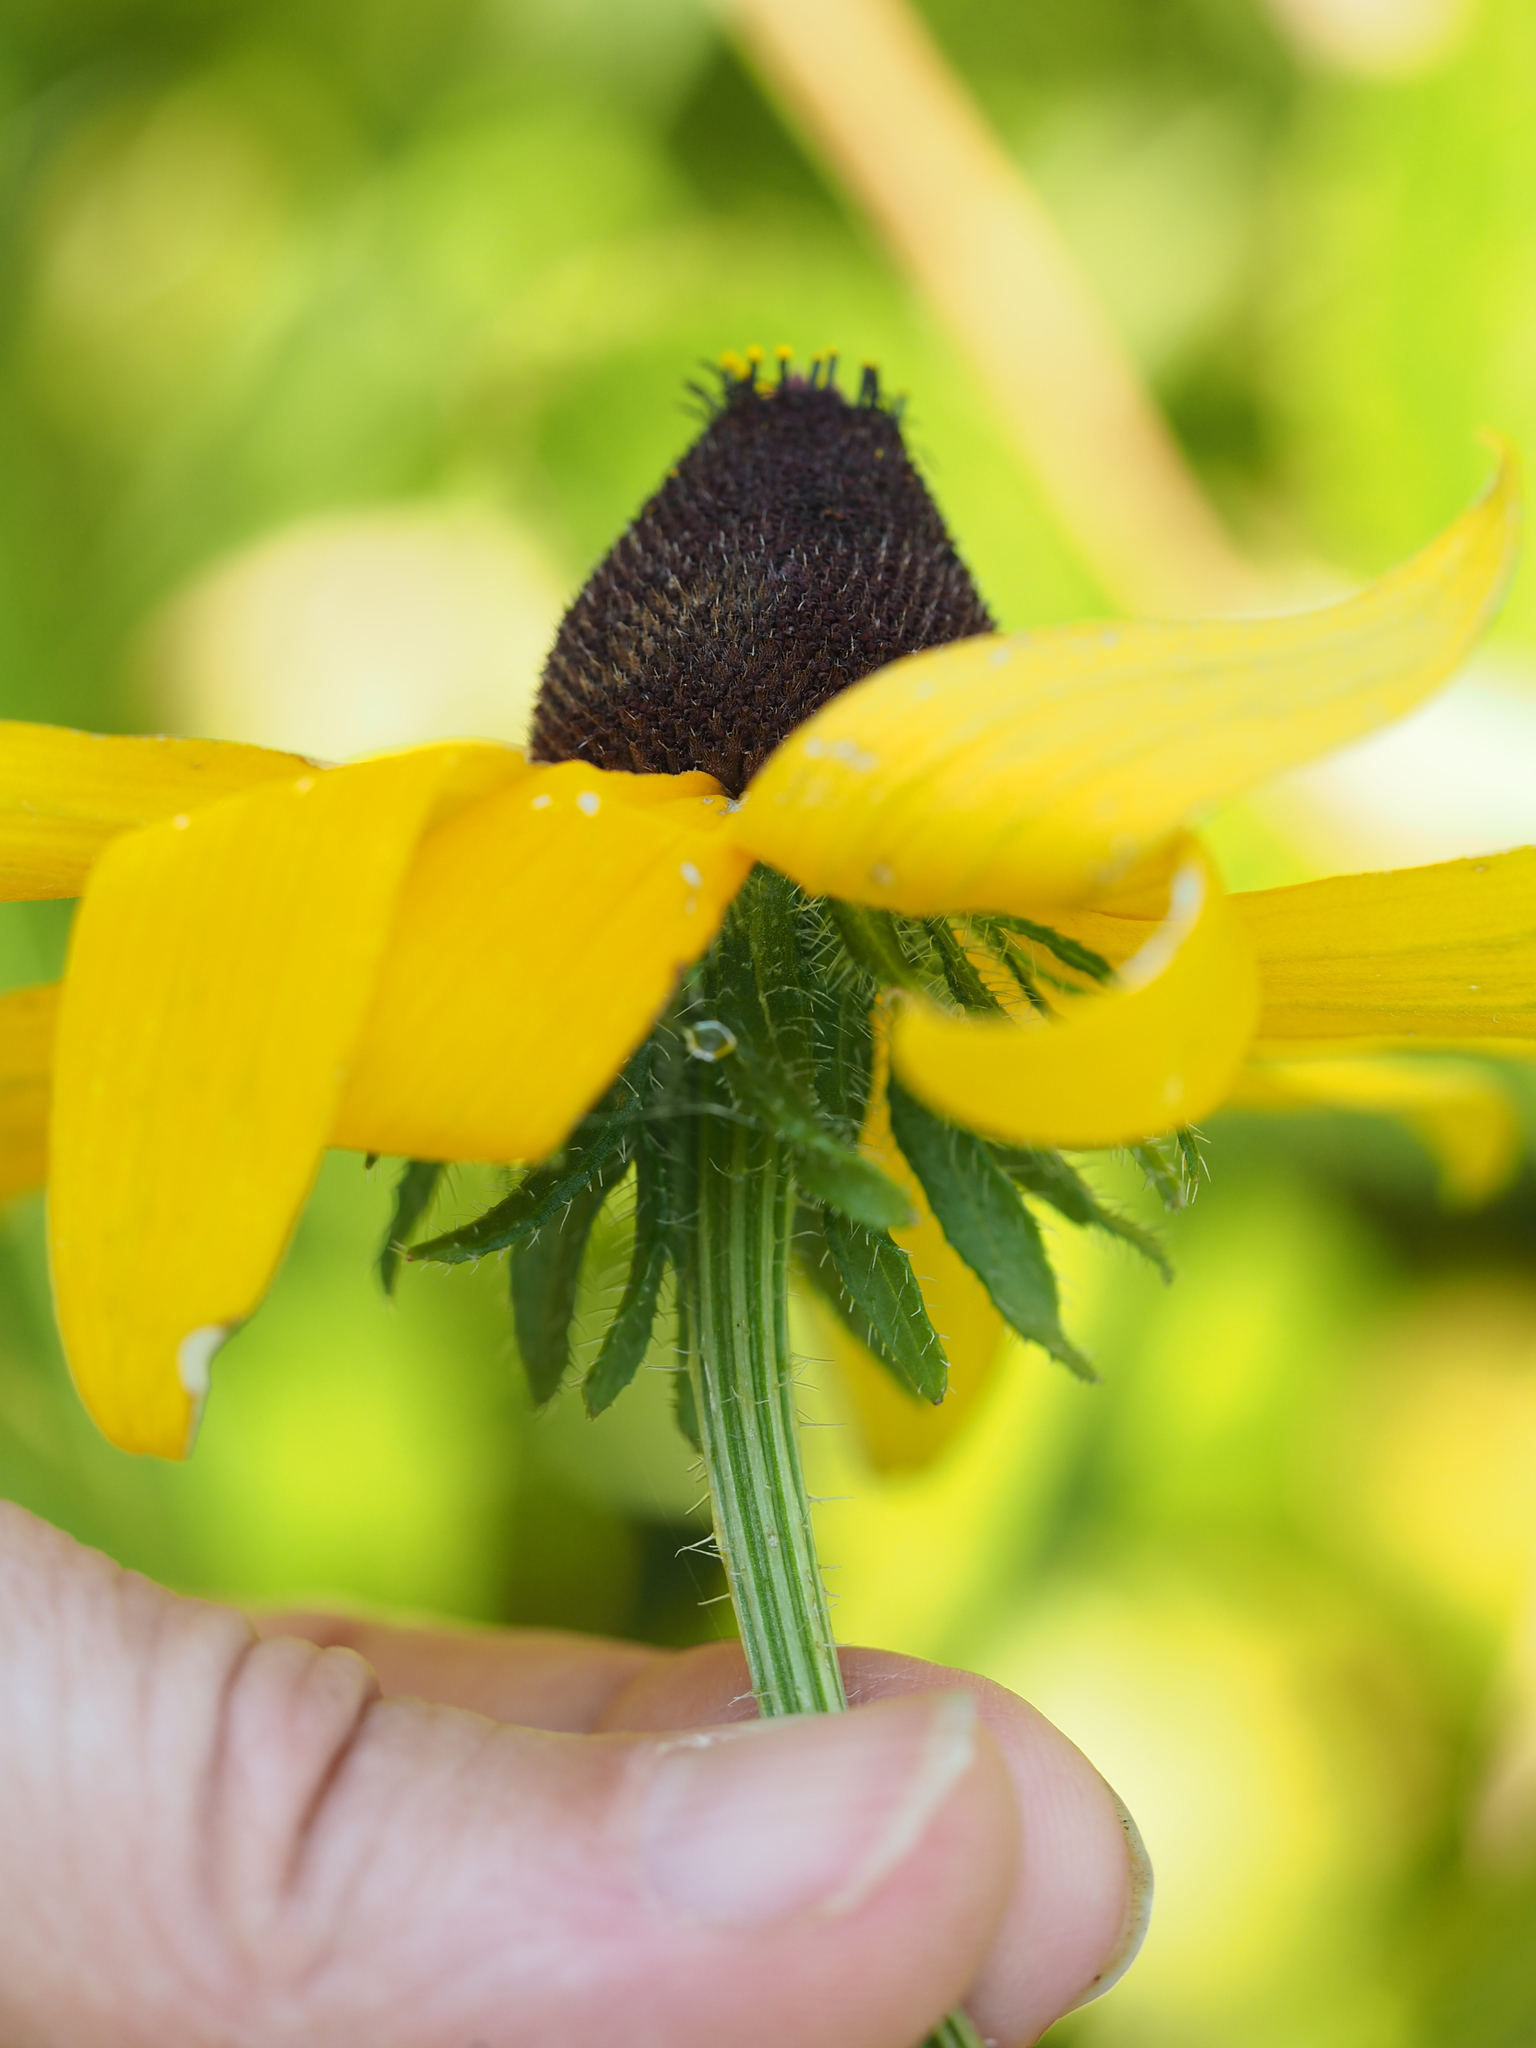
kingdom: Plantae
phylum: Tracheophyta
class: Magnoliopsida
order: Asterales
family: Asteraceae
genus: Rudbeckia
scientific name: Rudbeckia hirta
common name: Black-eyed-susan
